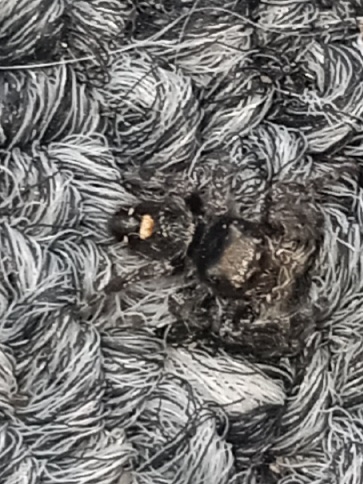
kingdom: Animalia
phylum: Arthropoda
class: Arachnida
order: Araneae
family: Salticidae
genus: Phidippus
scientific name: Phidippus audax
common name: Bold jumper
